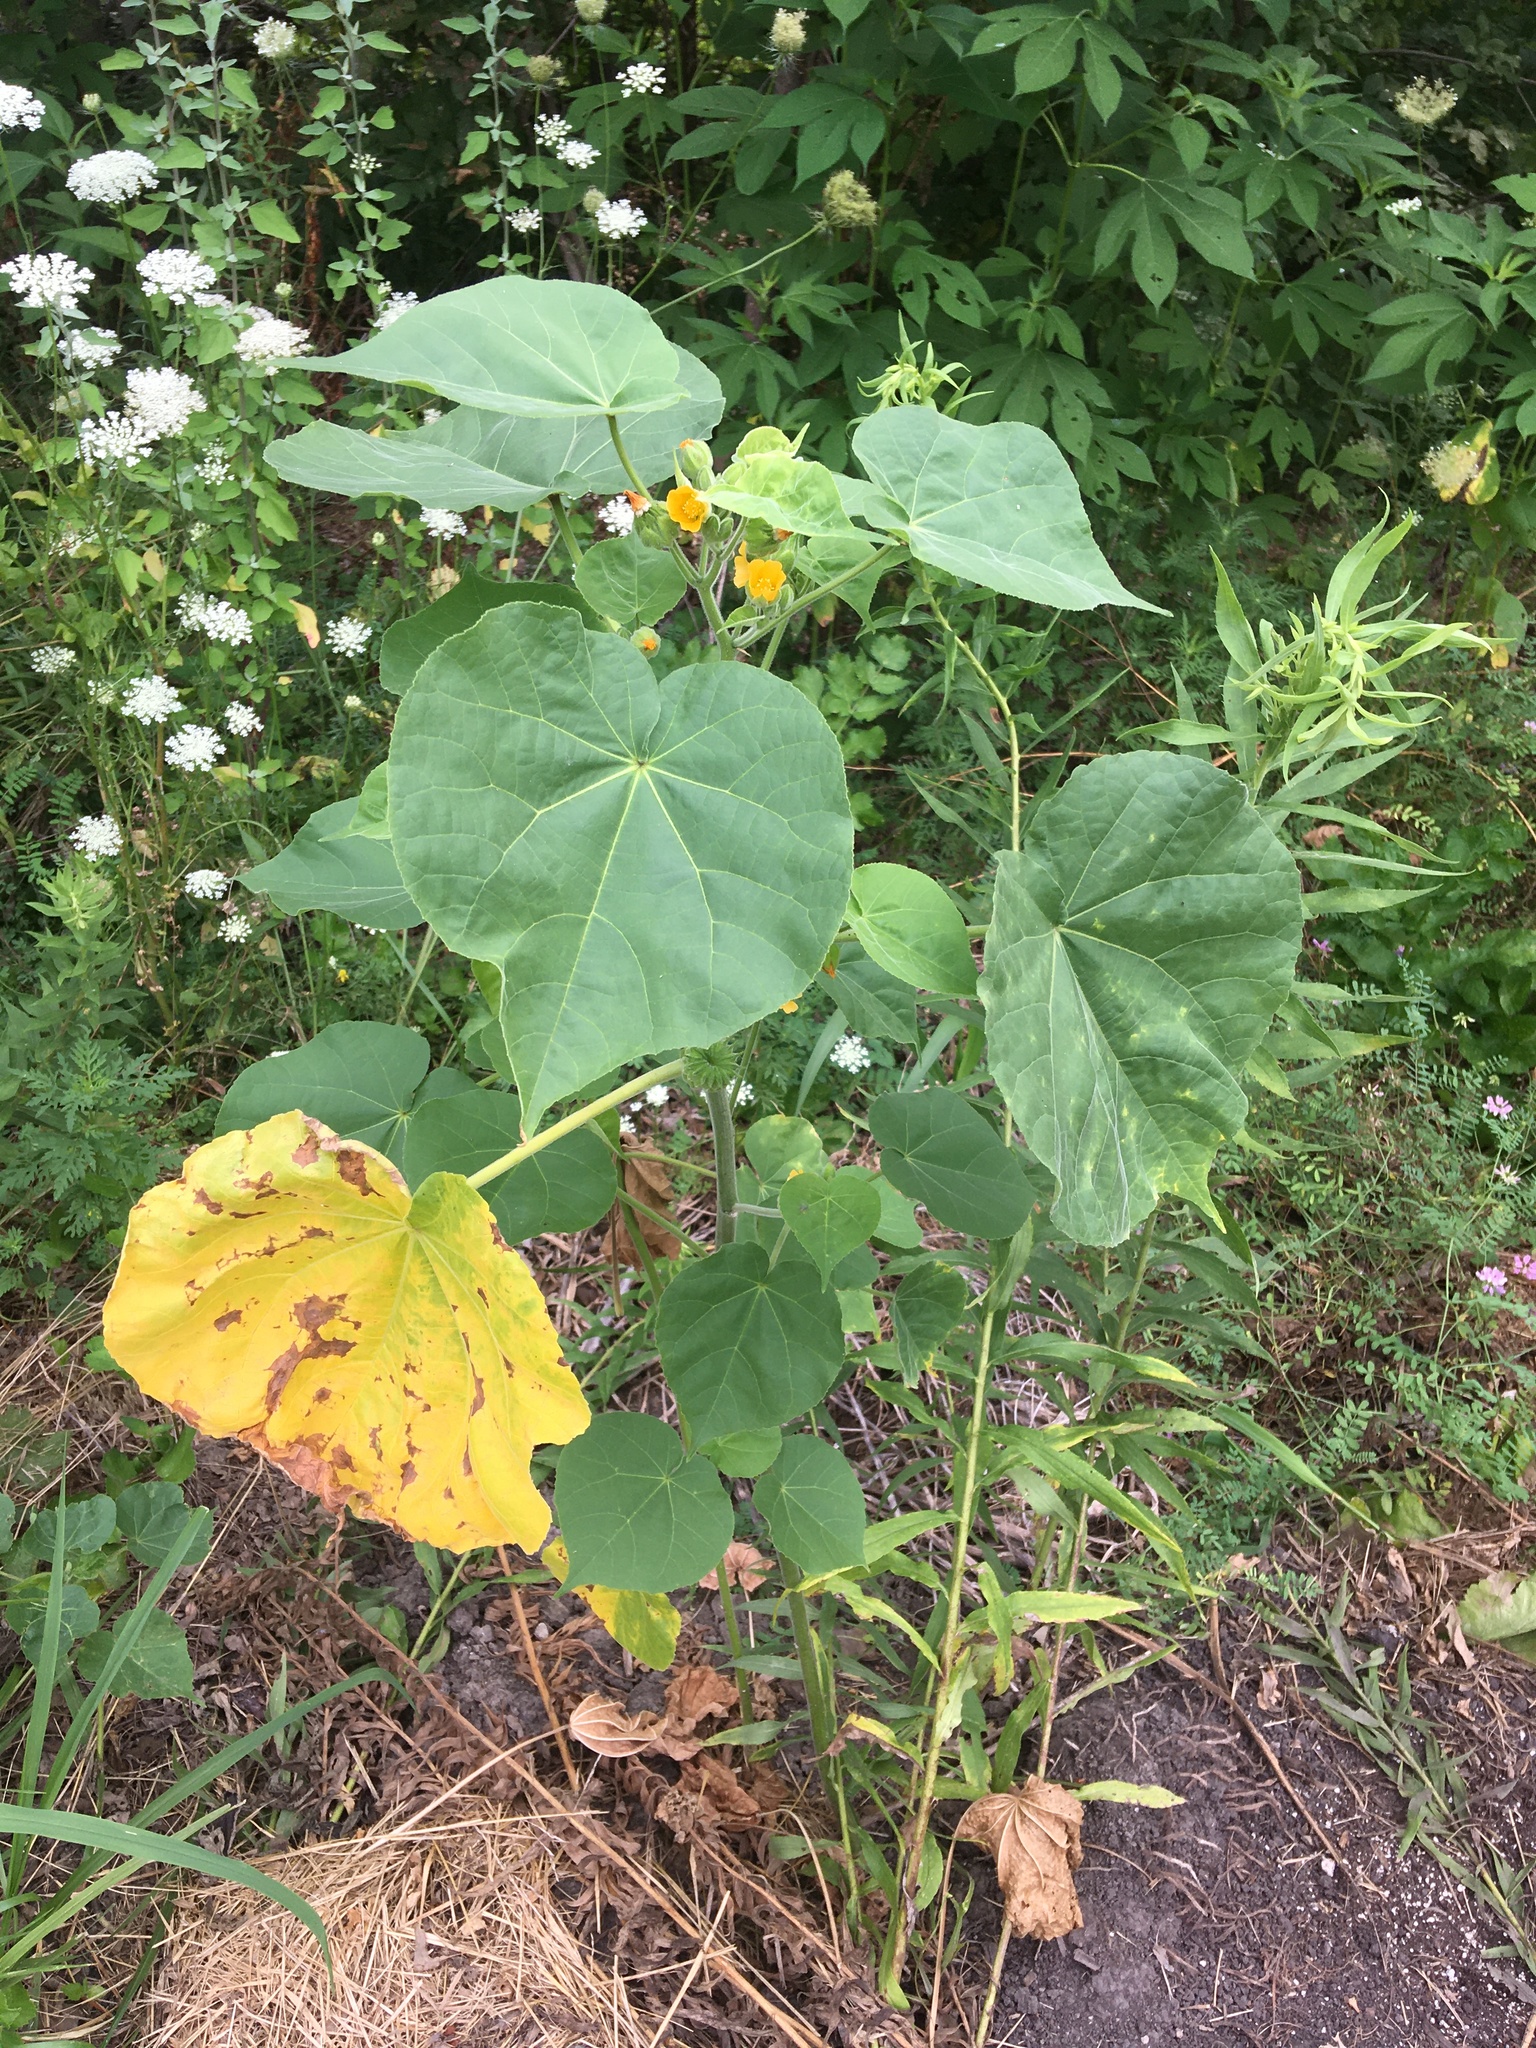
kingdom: Plantae
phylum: Tracheophyta
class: Magnoliopsida
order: Malvales
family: Malvaceae
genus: Abutilon
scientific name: Abutilon theophrasti
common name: Velvetleaf
